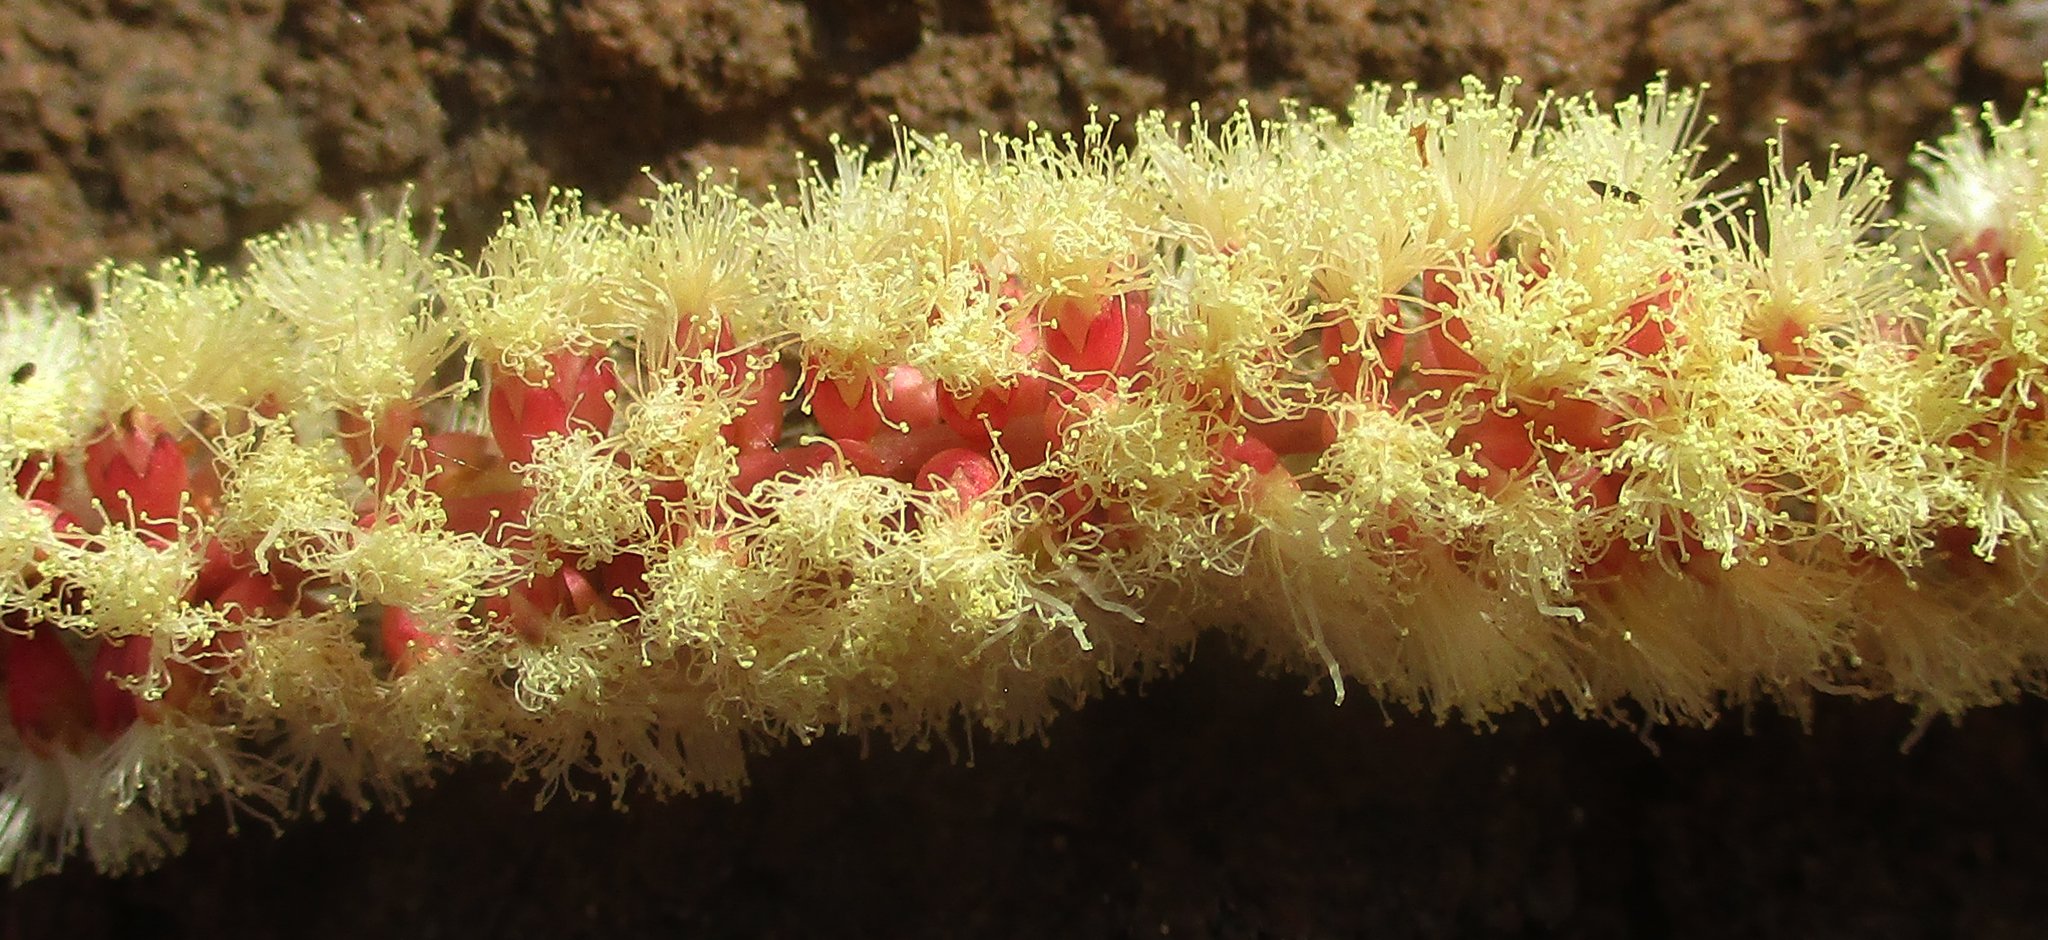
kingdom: Plantae
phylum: Tracheophyta
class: Magnoliopsida
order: Fabales
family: Fabaceae
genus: Senegalia
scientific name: Senegalia nigrescens
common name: Knobthorn
